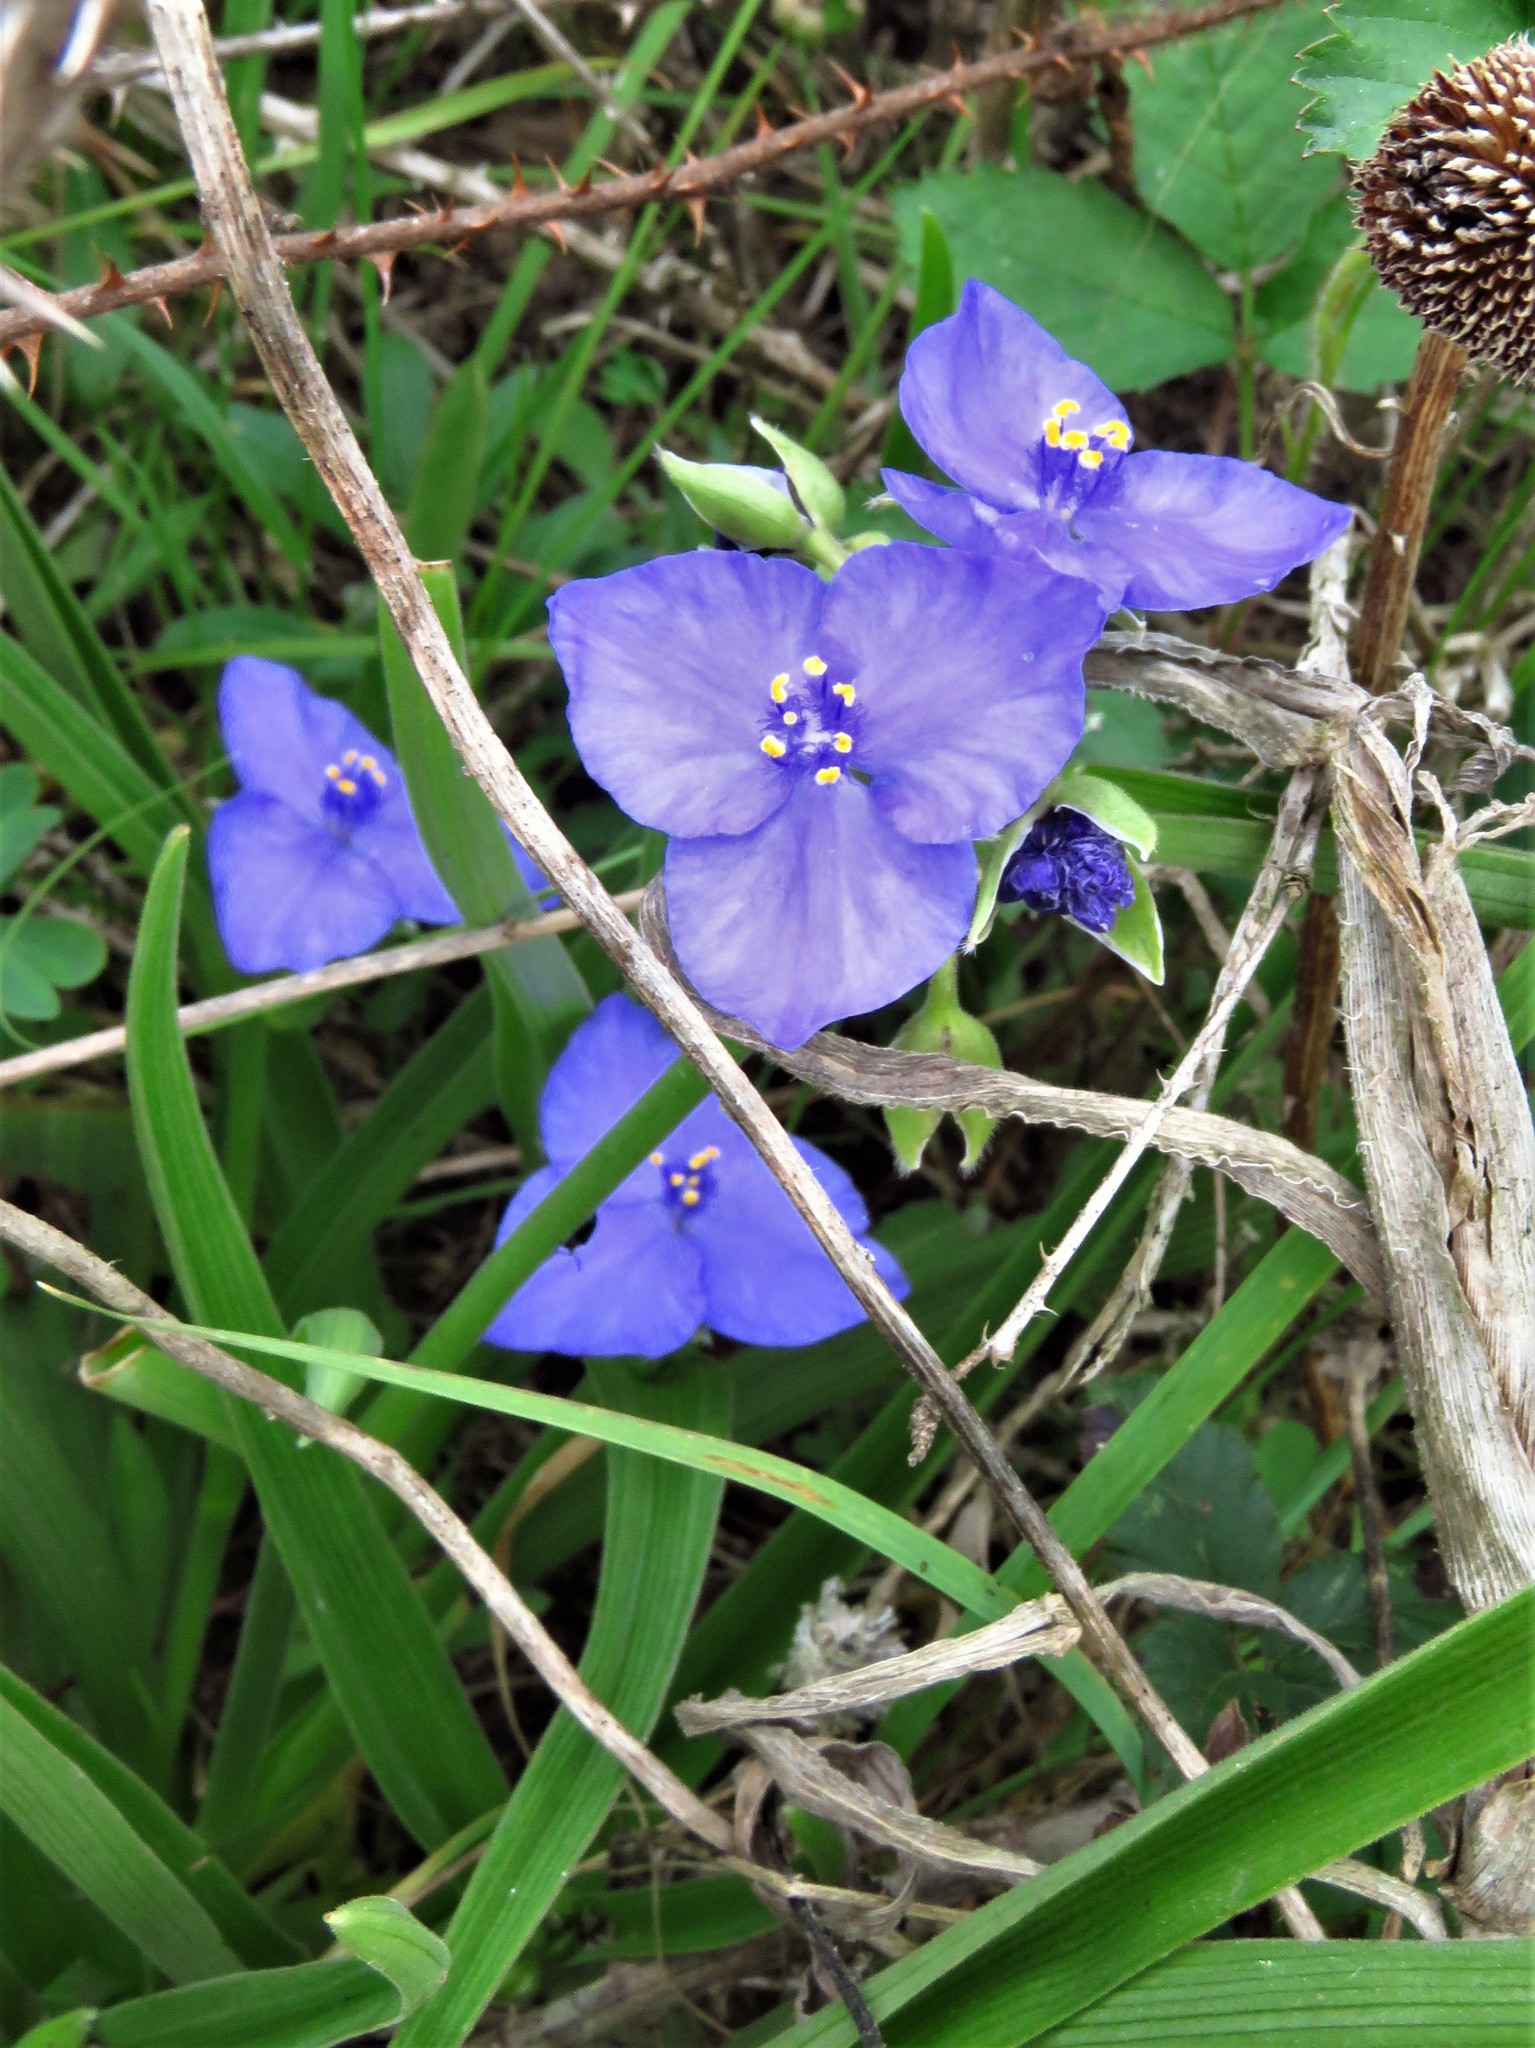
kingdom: Plantae
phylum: Tracheophyta
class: Liliopsida
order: Commelinales
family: Commelinaceae
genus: Tradescantia
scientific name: Tradescantia hirsutiflora
